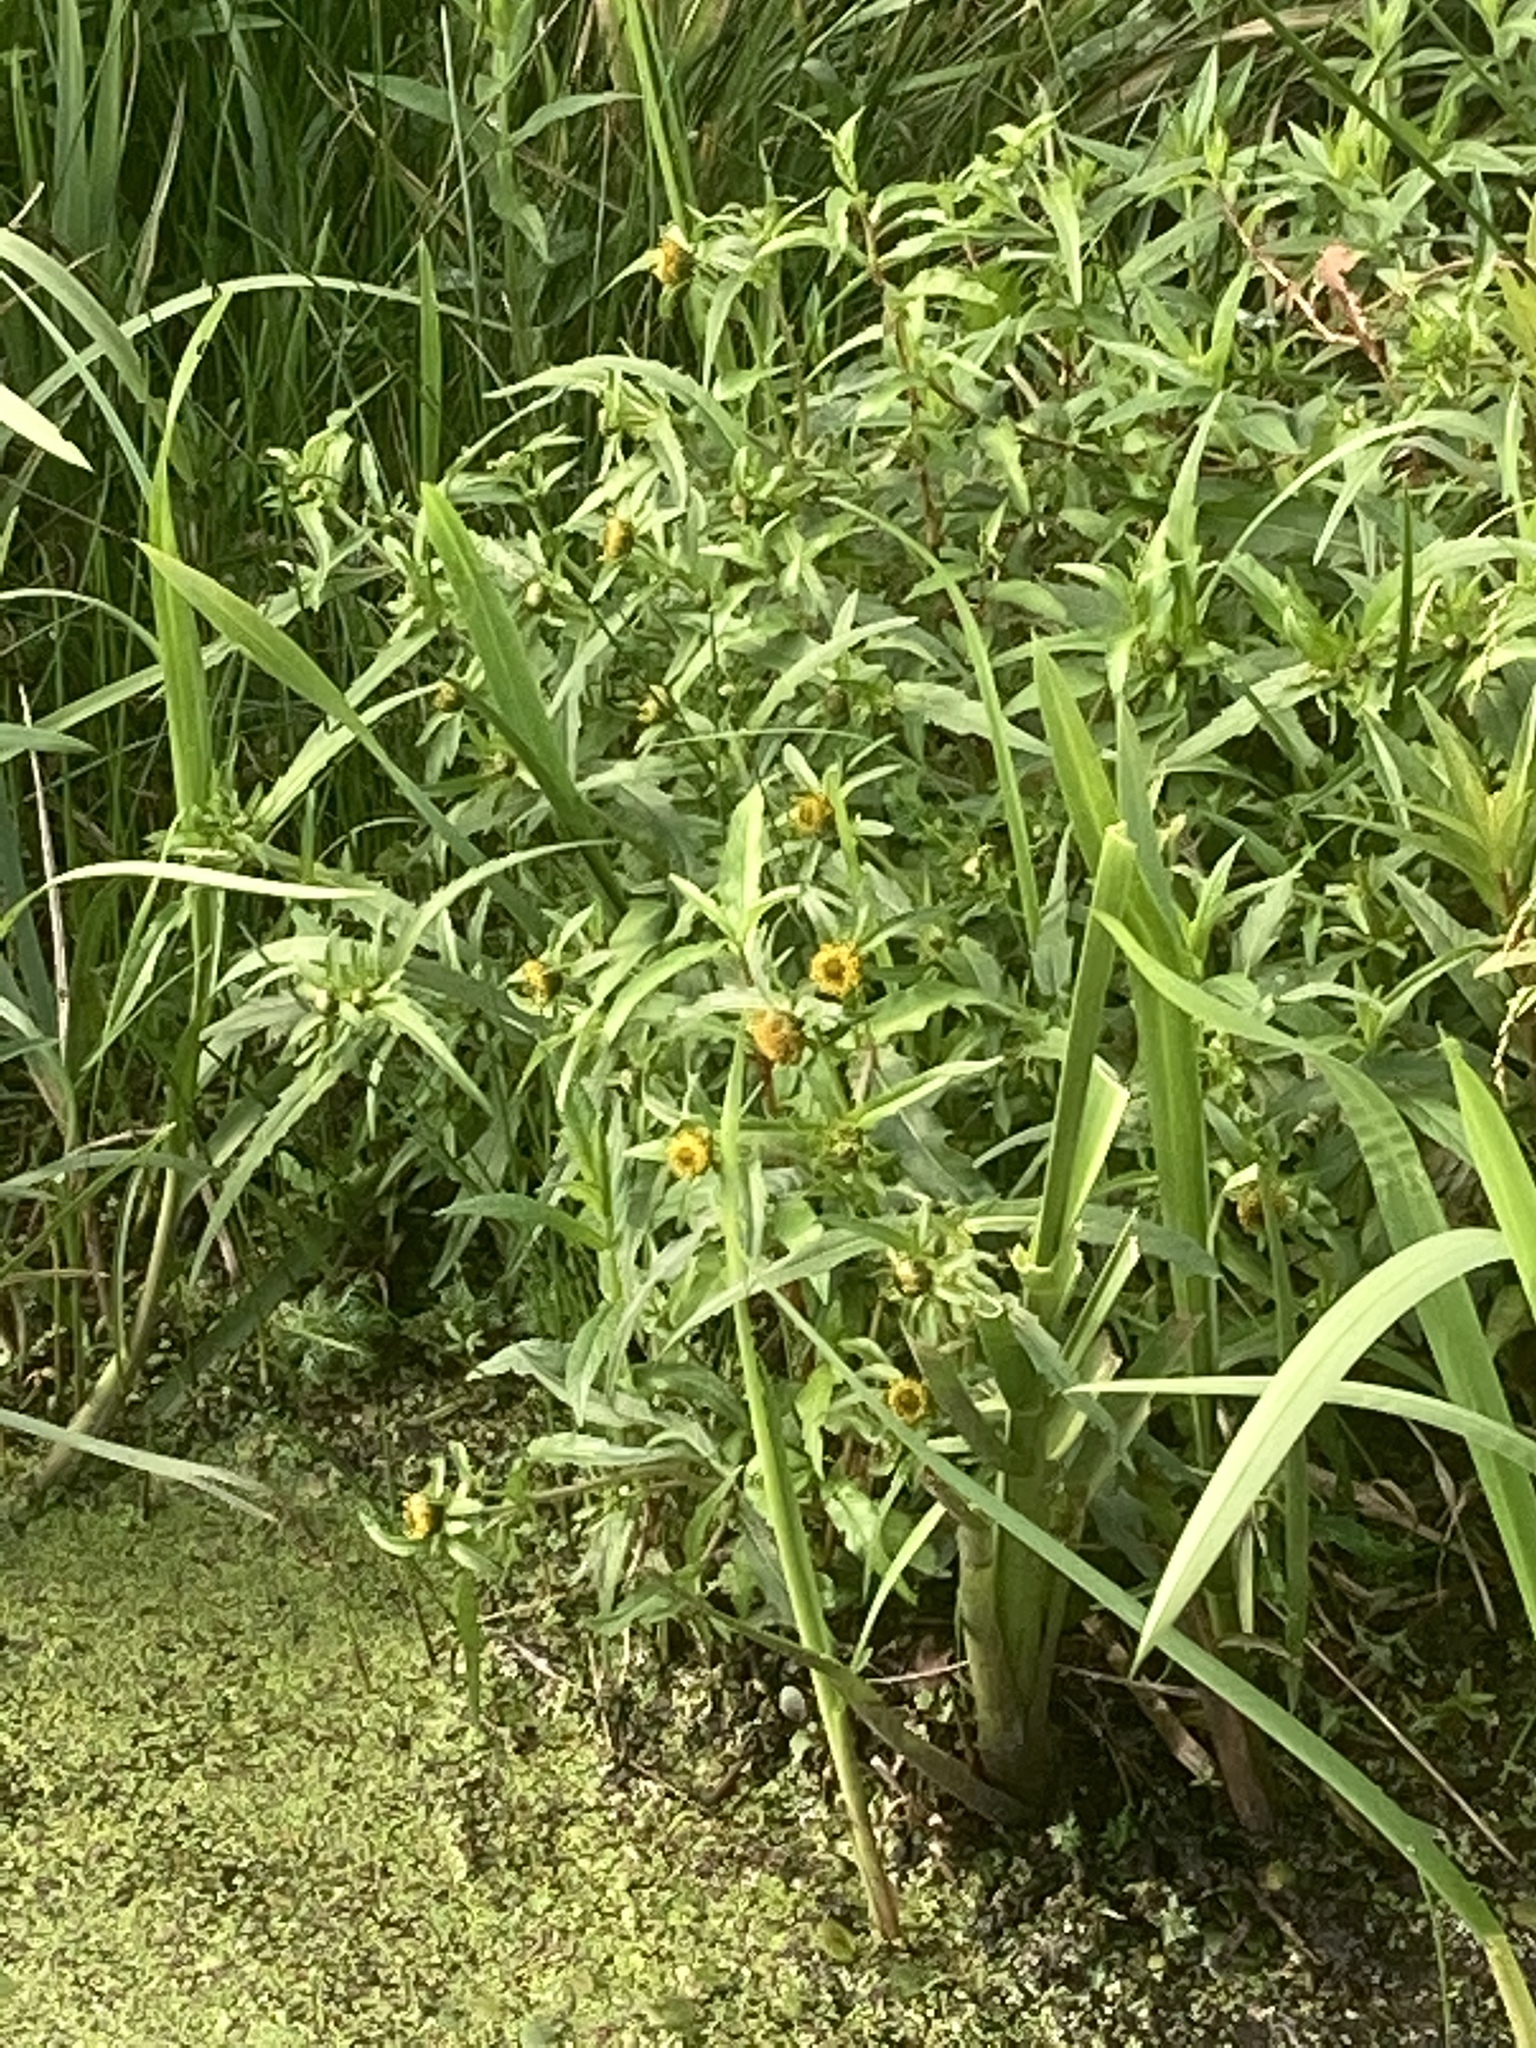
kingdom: Plantae
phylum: Tracheophyta
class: Magnoliopsida
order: Asterales
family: Asteraceae
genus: Bidens
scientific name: Bidens cernua
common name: Nodding bur-marigold
